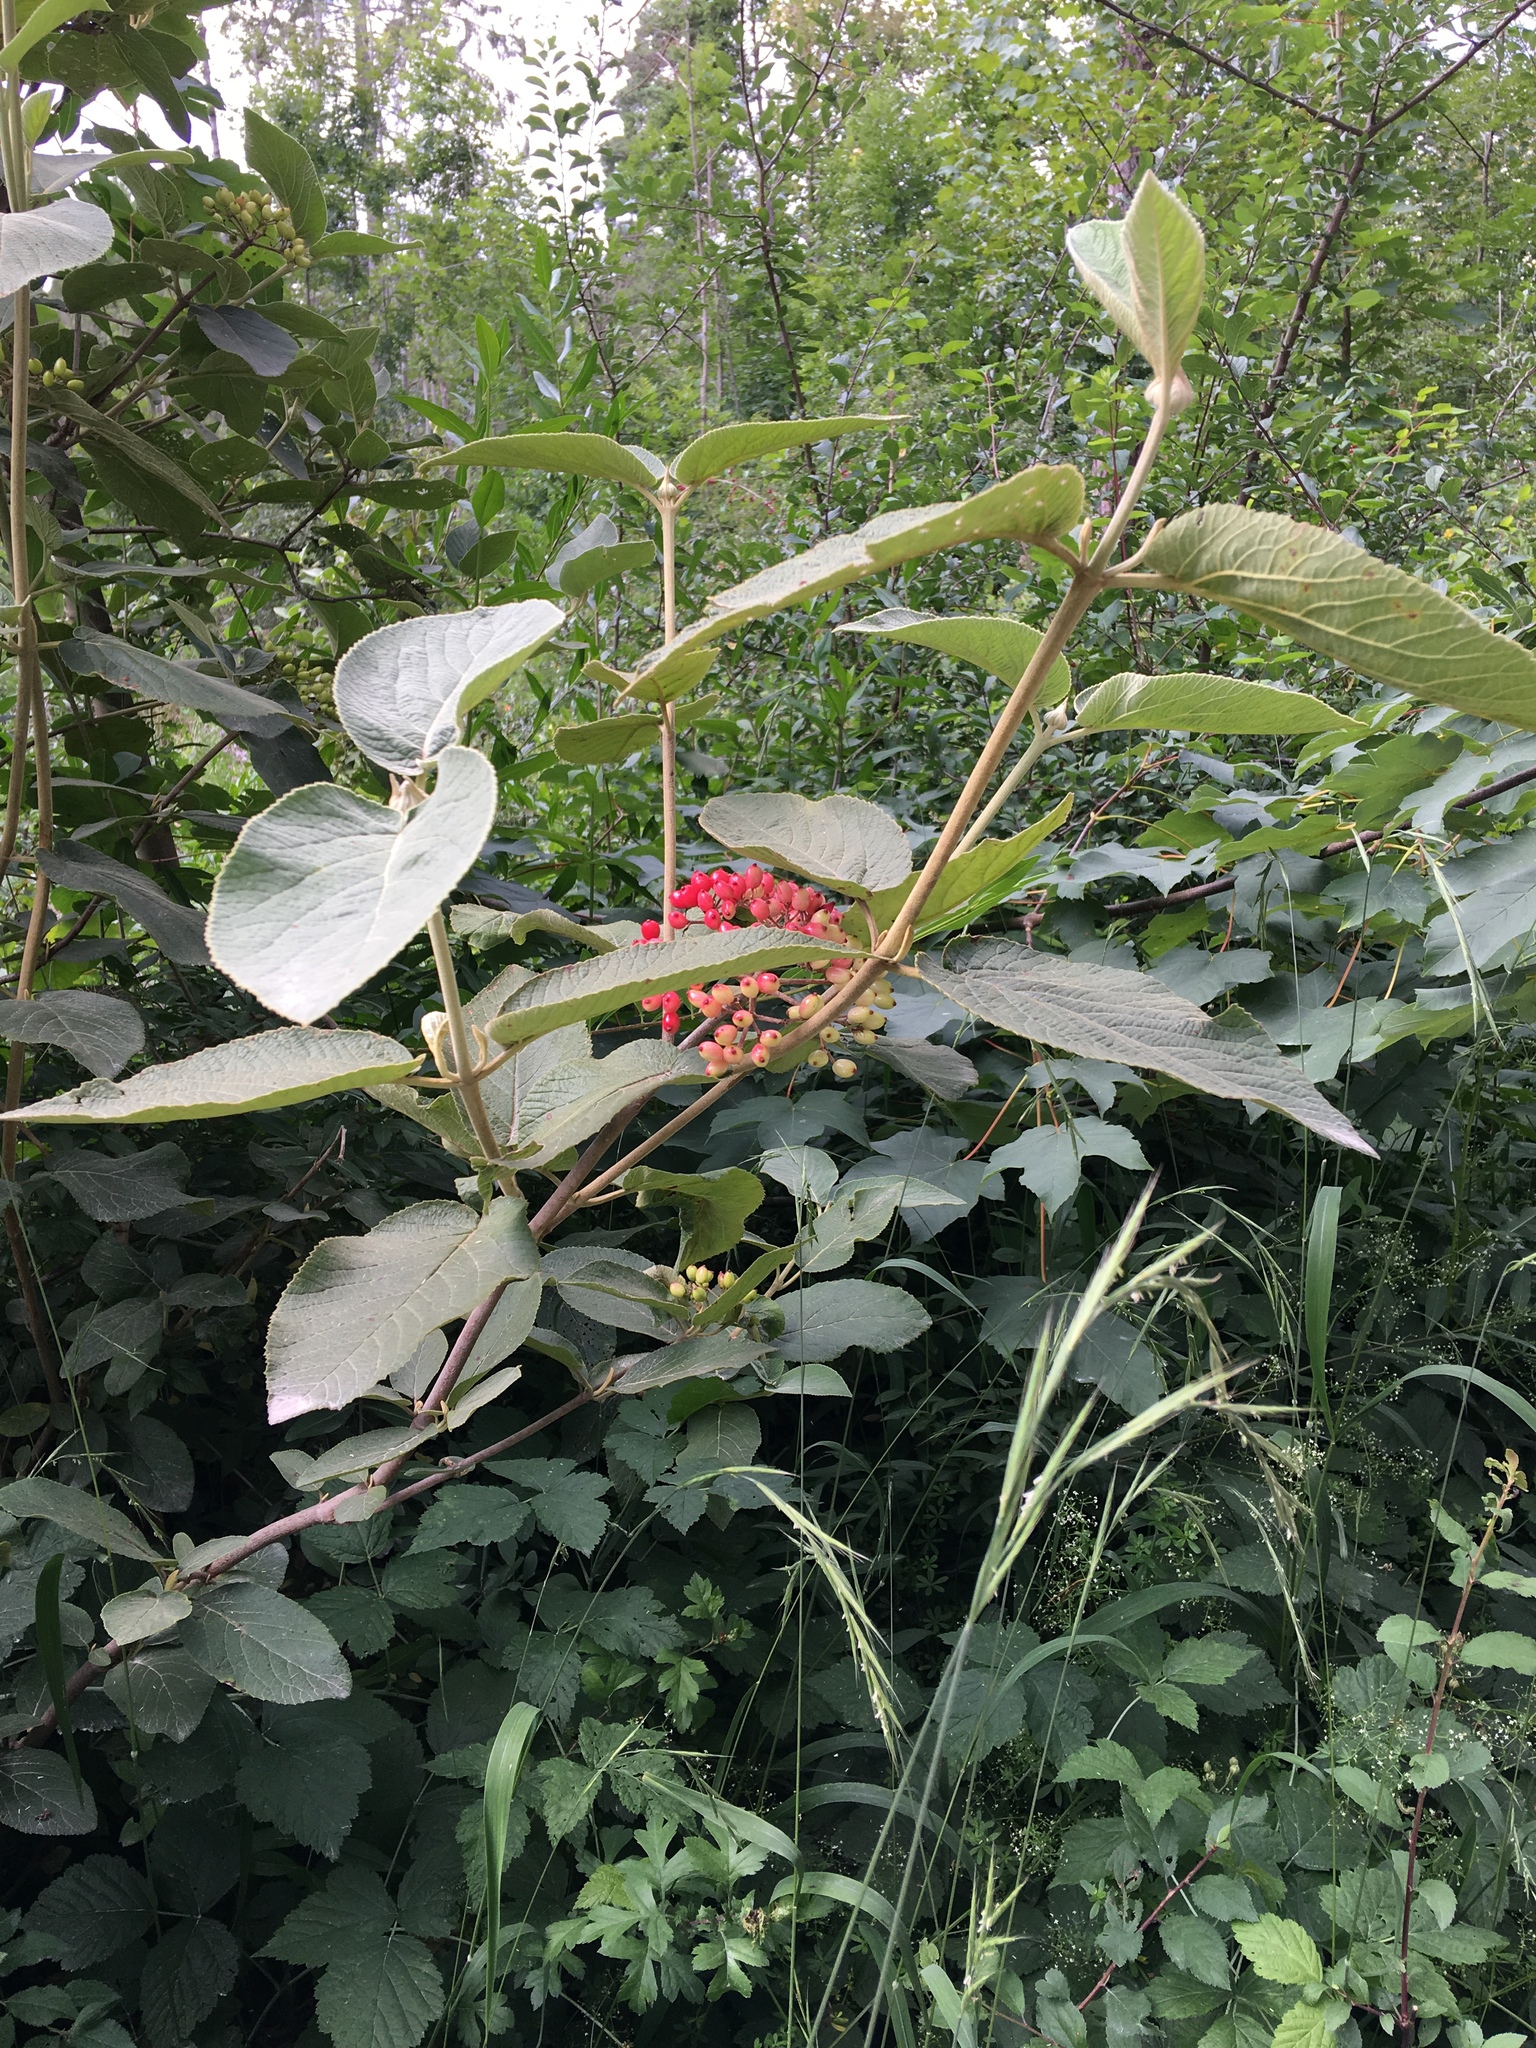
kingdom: Plantae
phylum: Tracheophyta
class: Magnoliopsida
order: Dipsacales
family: Viburnaceae
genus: Viburnum
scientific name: Viburnum lantana
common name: Wayfaring tree
